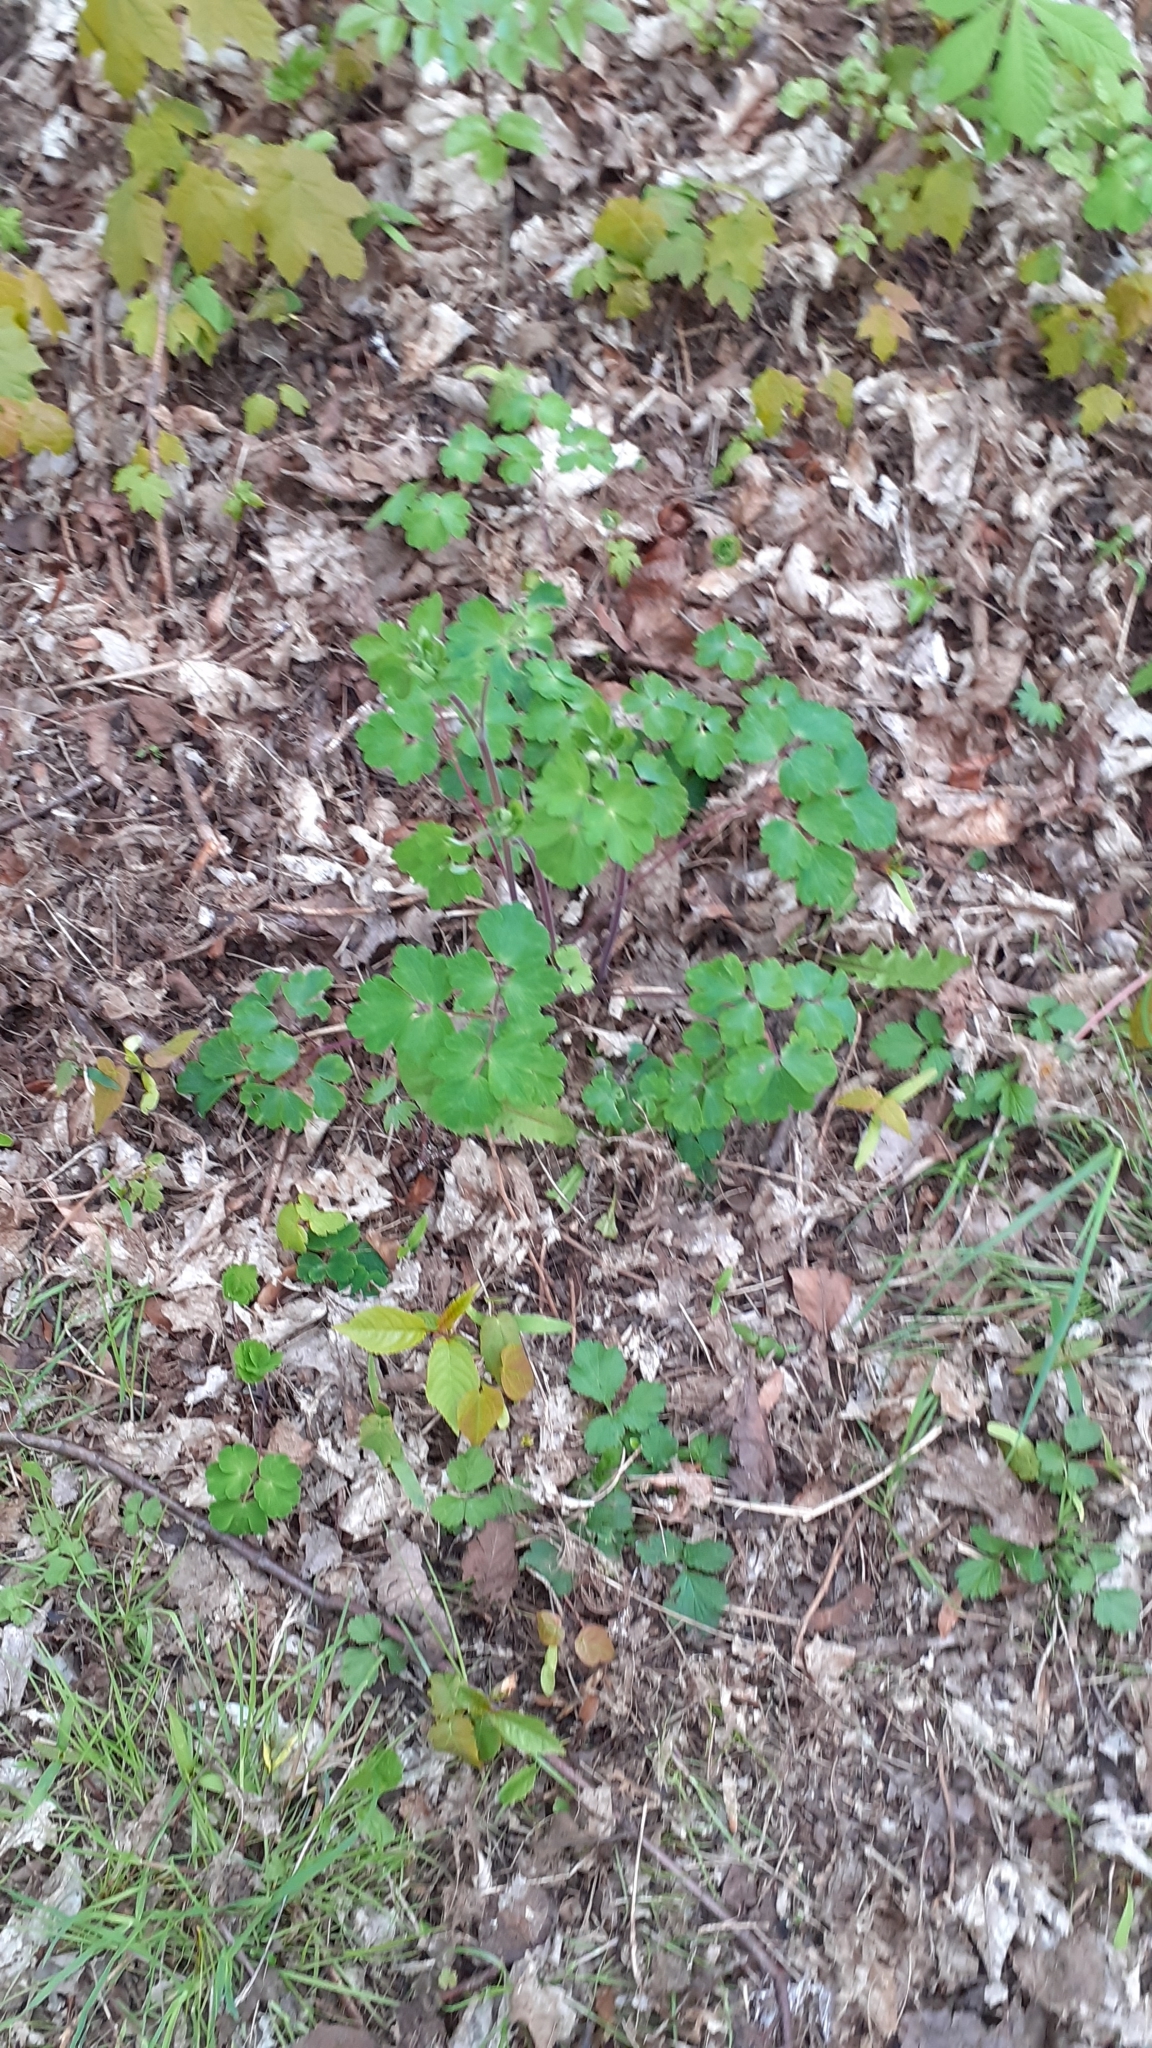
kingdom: Plantae
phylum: Tracheophyta
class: Magnoliopsida
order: Ranunculales
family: Ranunculaceae
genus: Aquilegia
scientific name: Aquilegia vulgaris
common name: Columbine
